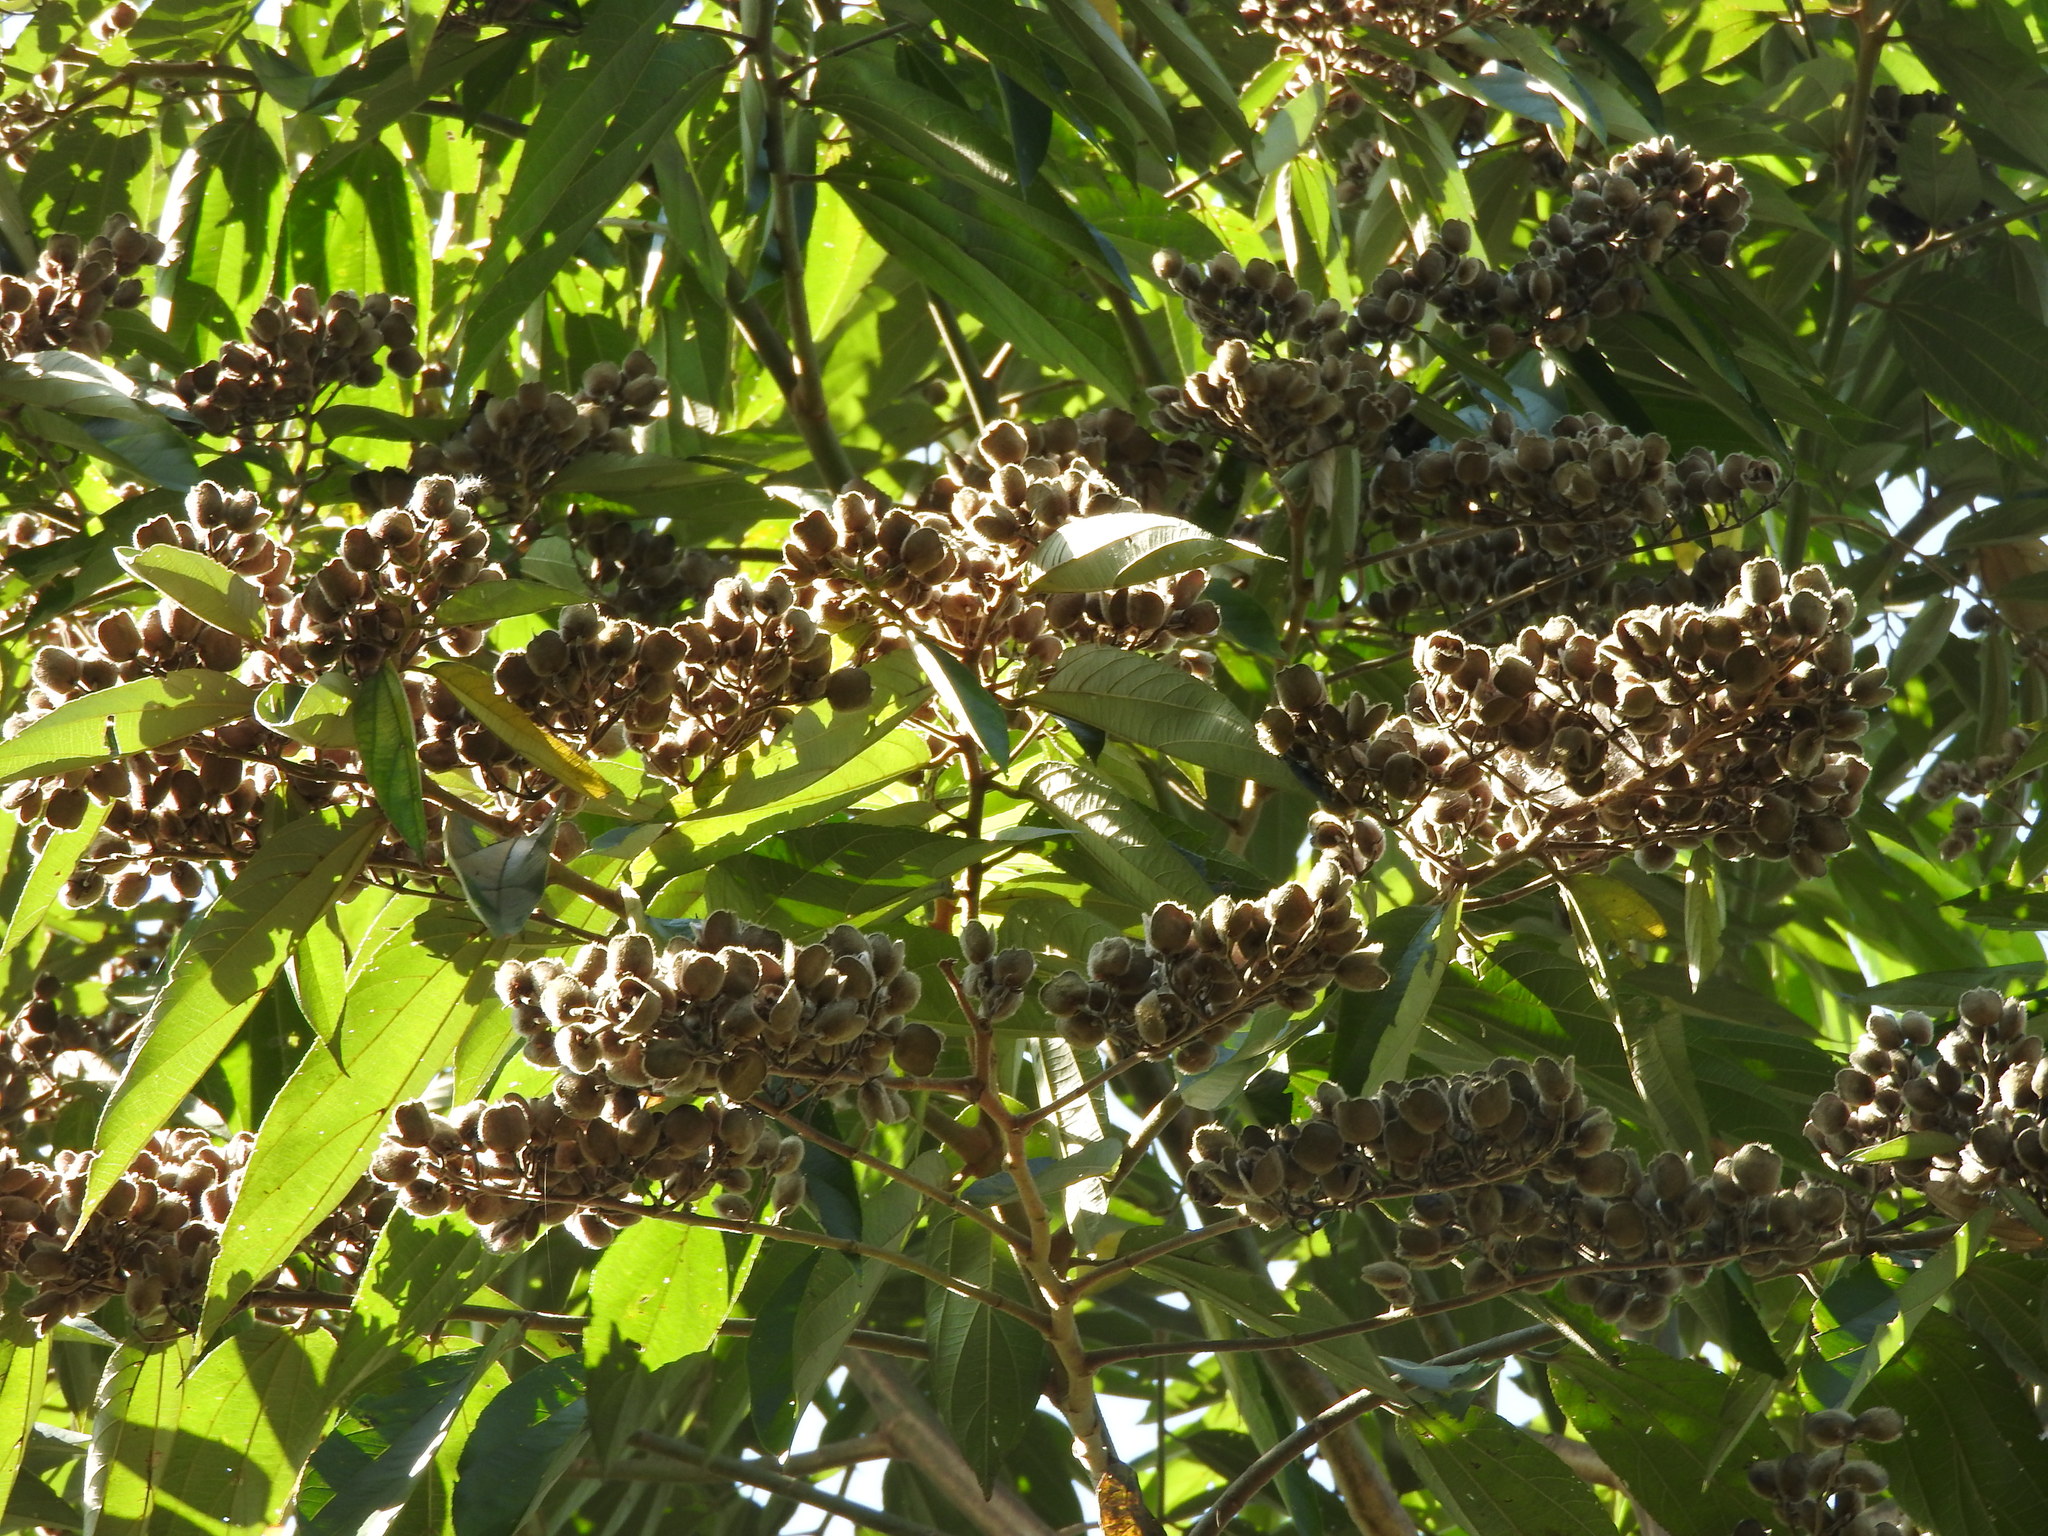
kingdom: Plantae
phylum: Tracheophyta
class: Magnoliopsida
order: Malvales
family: Malvaceae
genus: Trichospermum
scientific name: Trichospermum mexicanum
